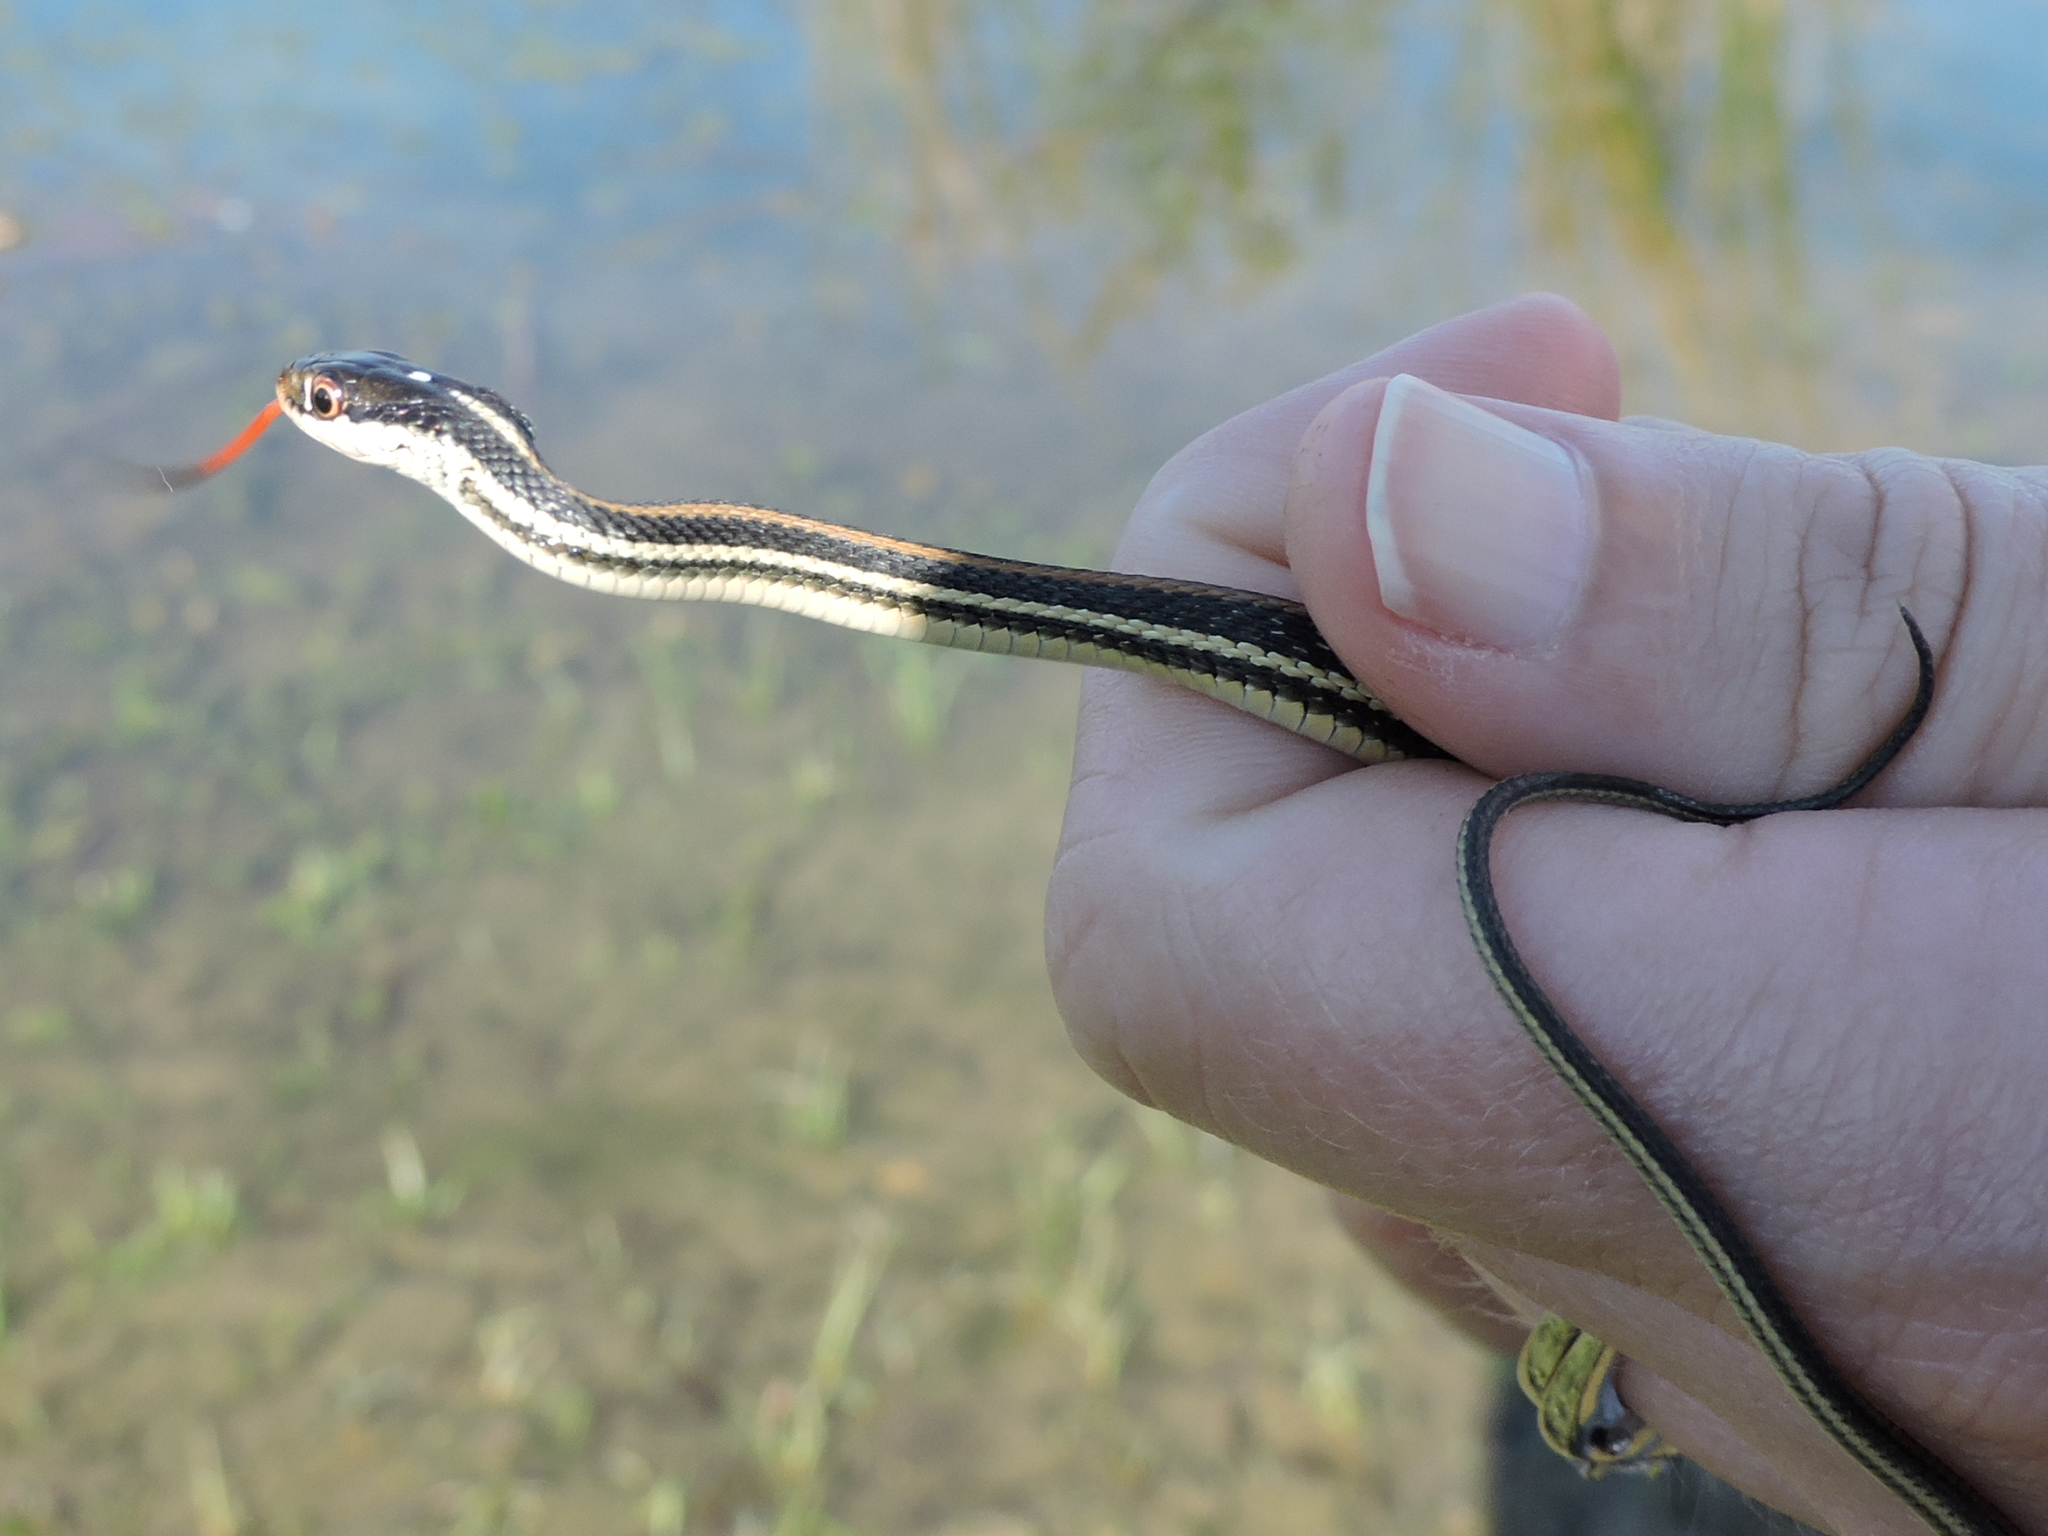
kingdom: Animalia
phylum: Chordata
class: Squamata
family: Colubridae
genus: Thamnophis
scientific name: Thamnophis proximus
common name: Western ribbon snake
